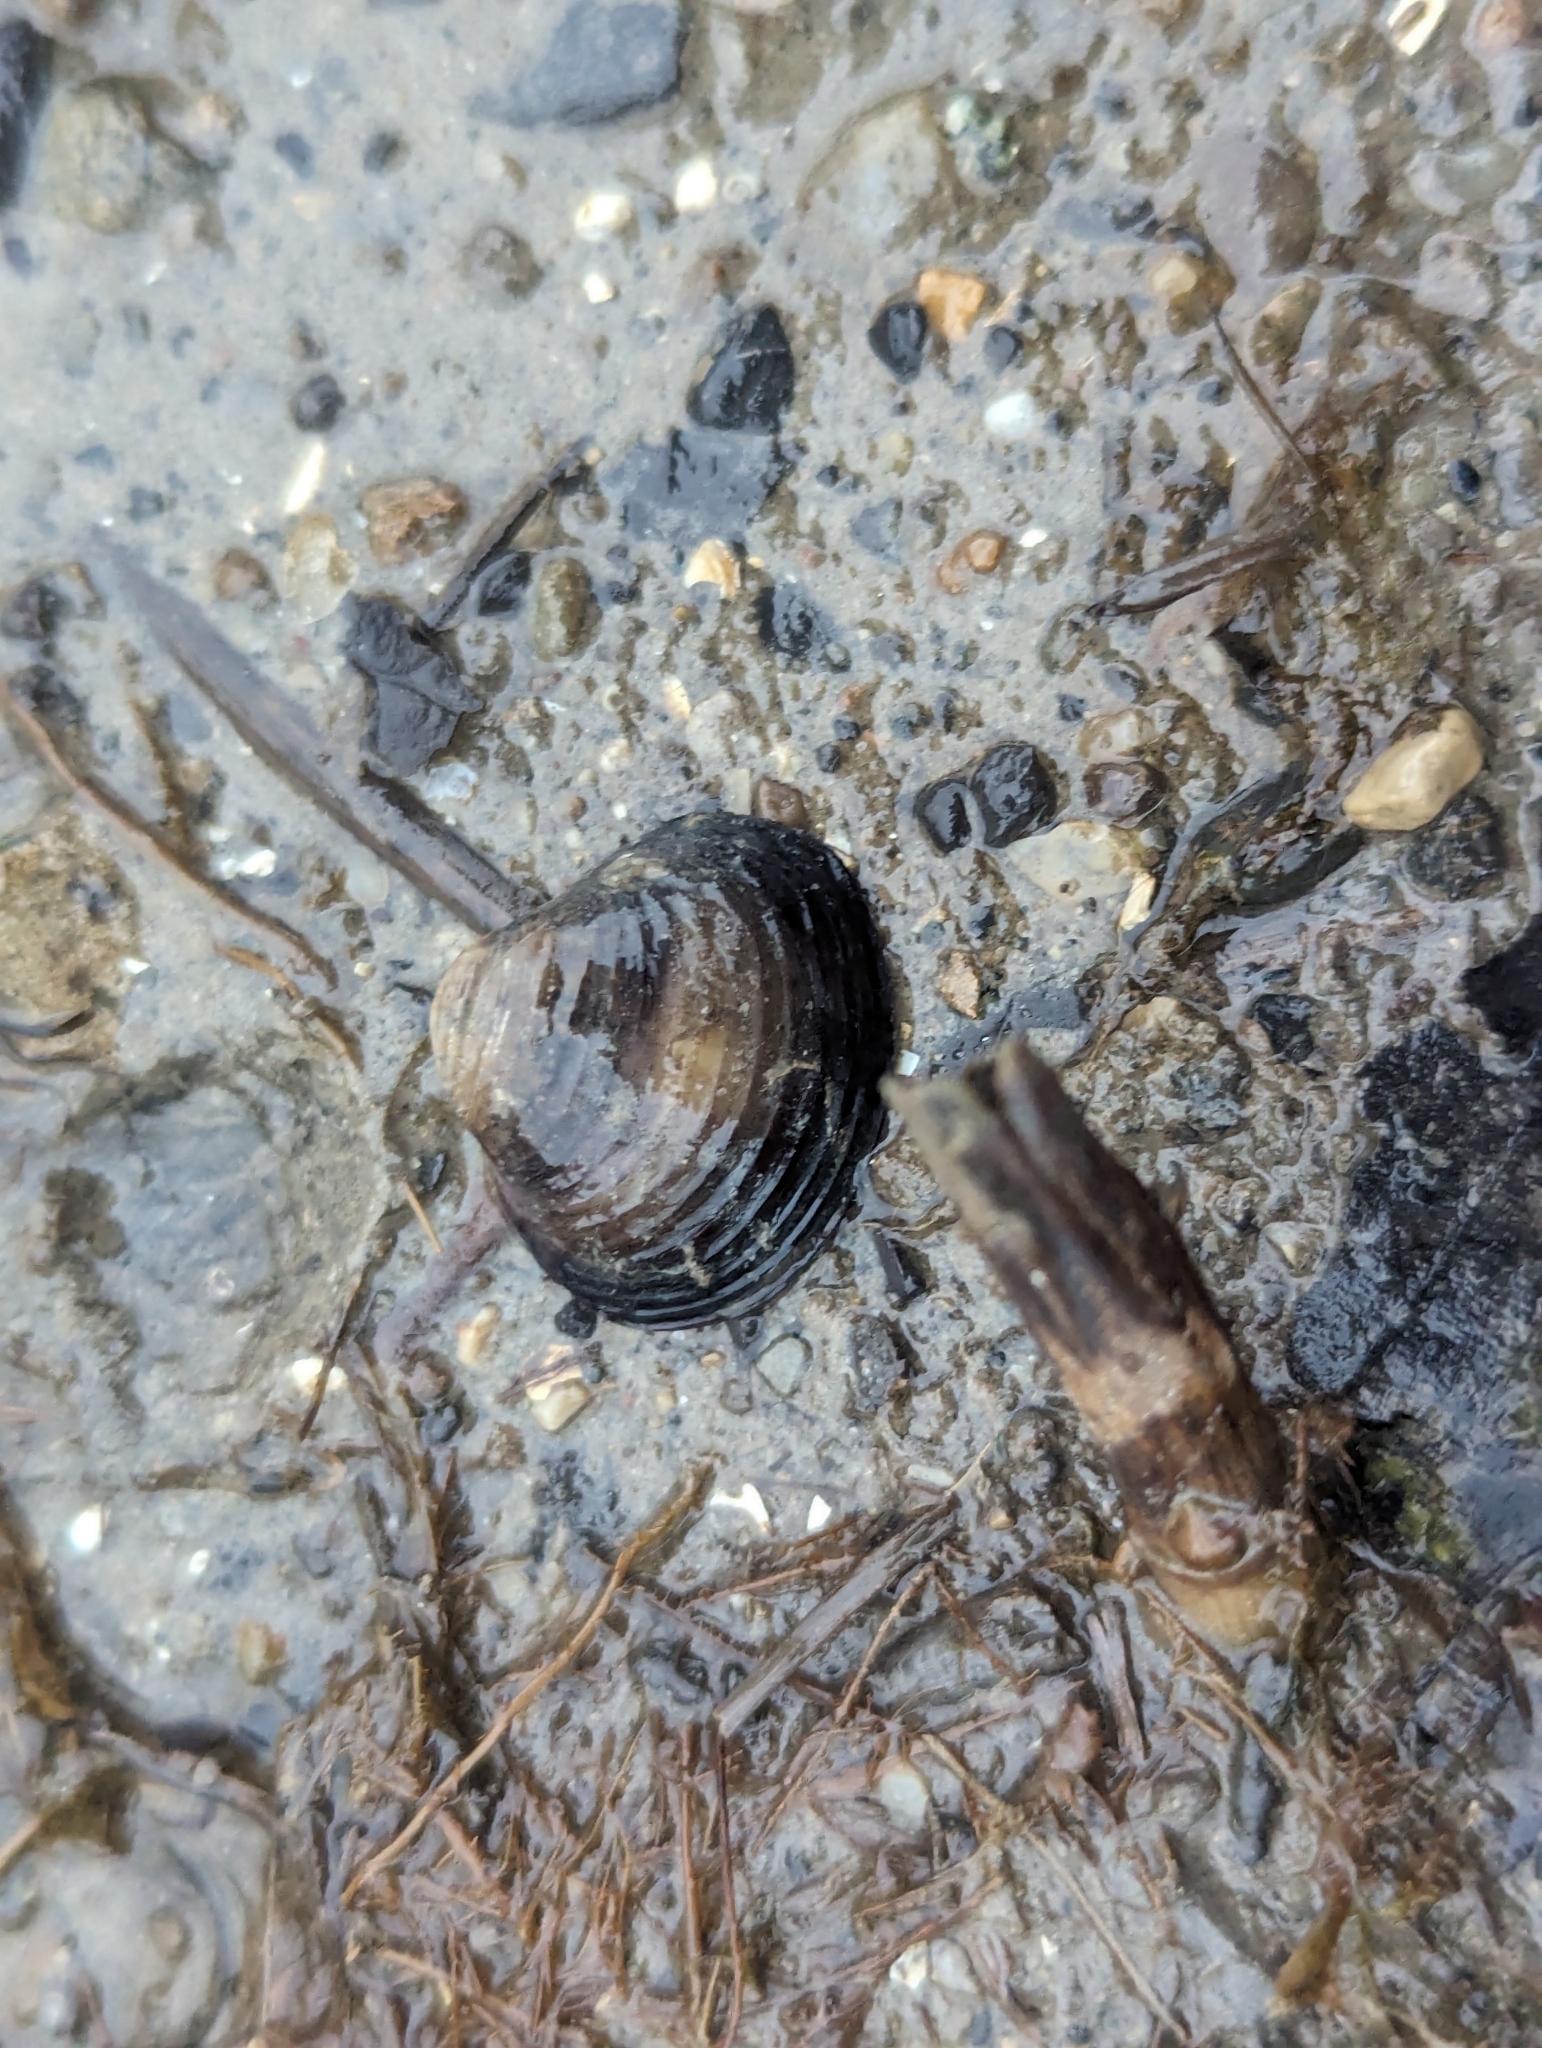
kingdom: Animalia
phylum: Mollusca
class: Bivalvia
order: Venerida
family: Cyrenidae
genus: Corbicula
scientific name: Corbicula fluminea
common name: Asian clam
